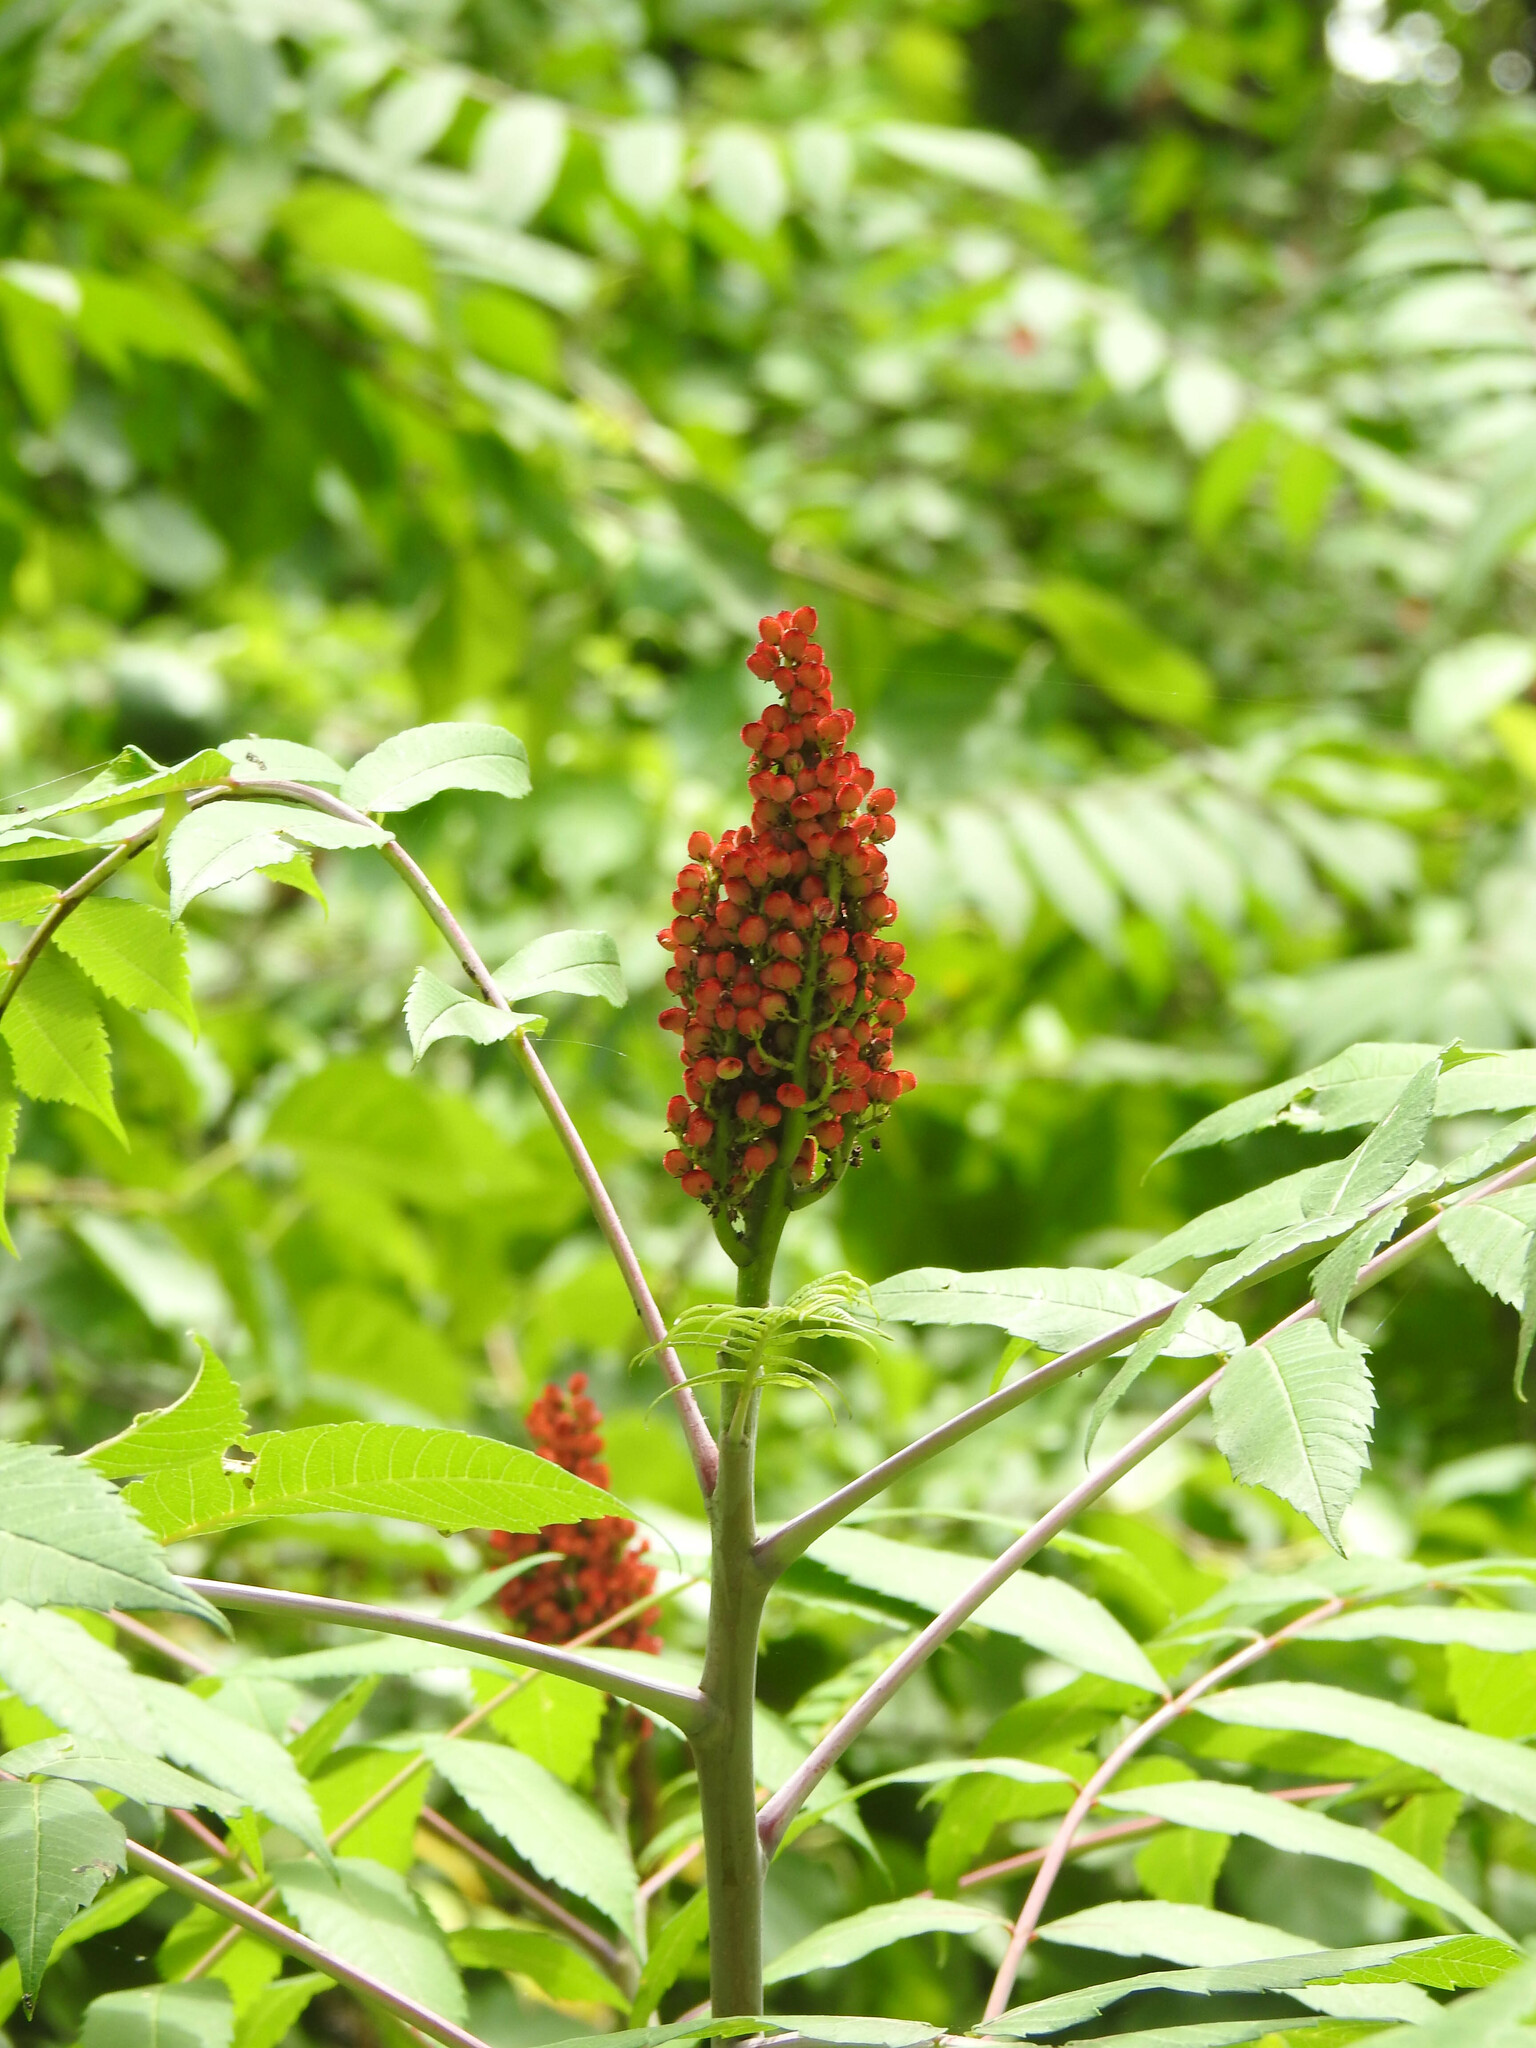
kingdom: Plantae
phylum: Tracheophyta
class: Magnoliopsida
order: Sapindales
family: Anacardiaceae
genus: Rhus
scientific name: Rhus glabra
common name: Scarlet sumac
